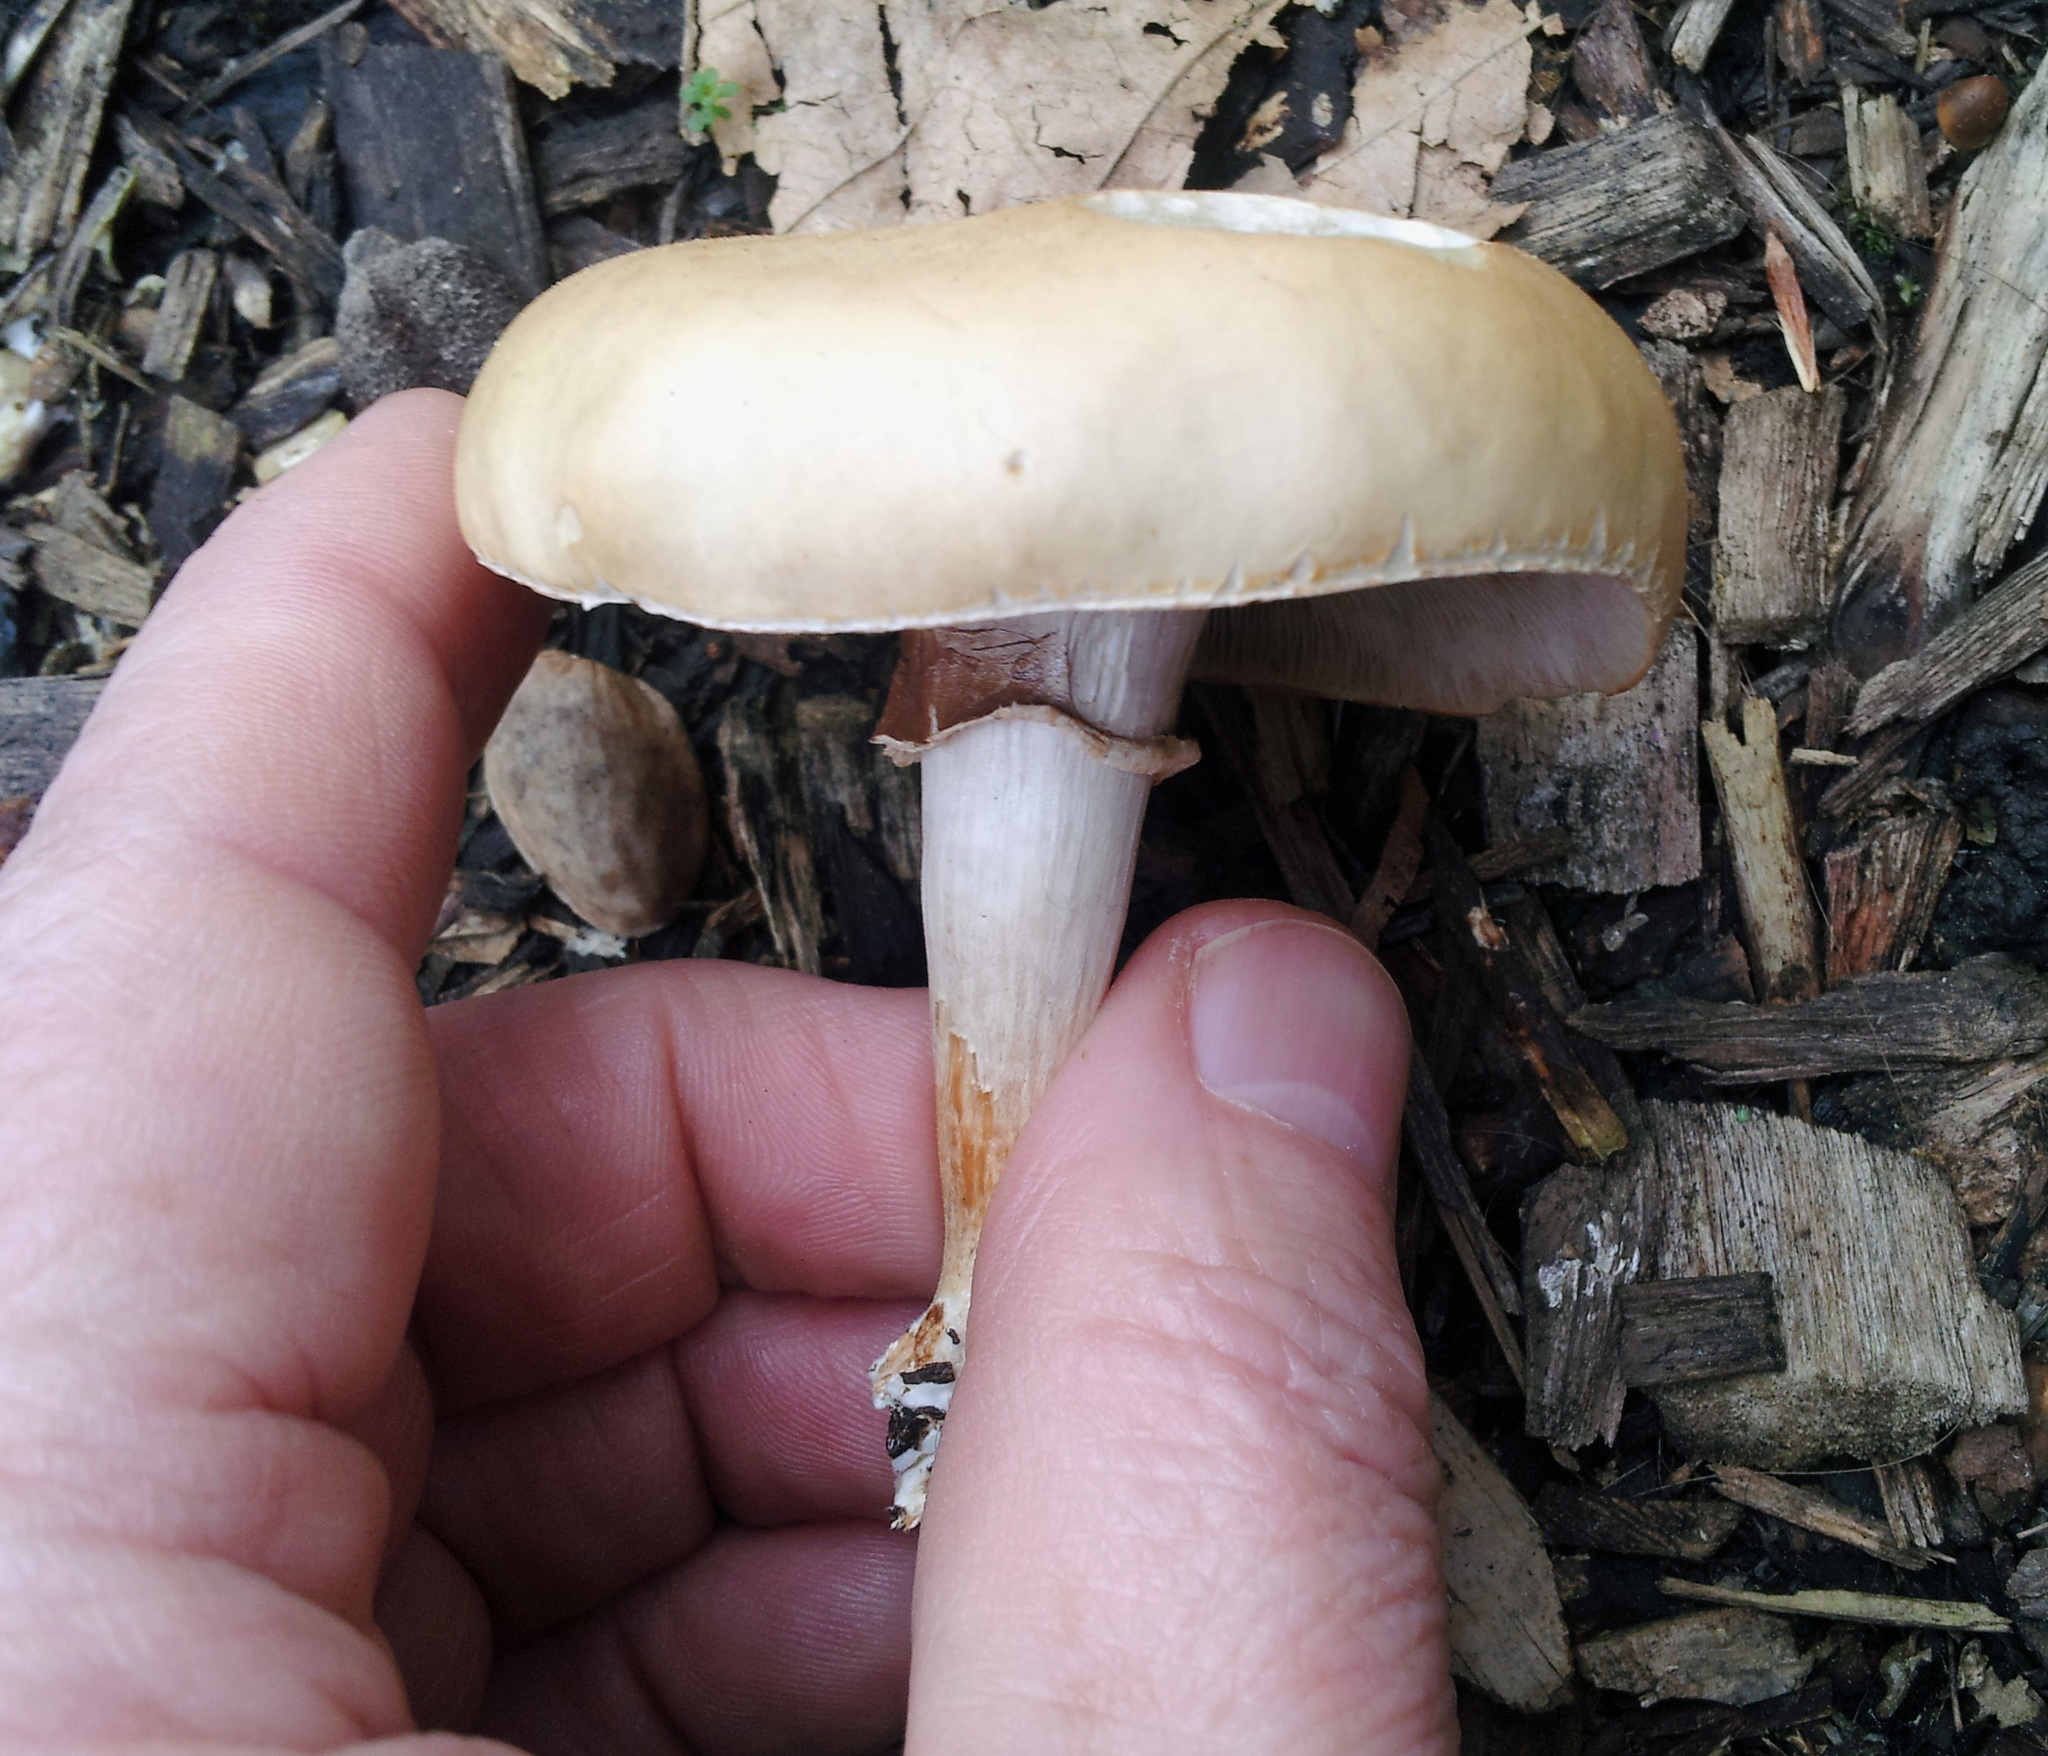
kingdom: Fungi
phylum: Basidiomycota
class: Agaricomycetes
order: Agaricales
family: Strophariaceae
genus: Agrocybe
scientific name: Agrocybe praecox
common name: Spring fieldcap
